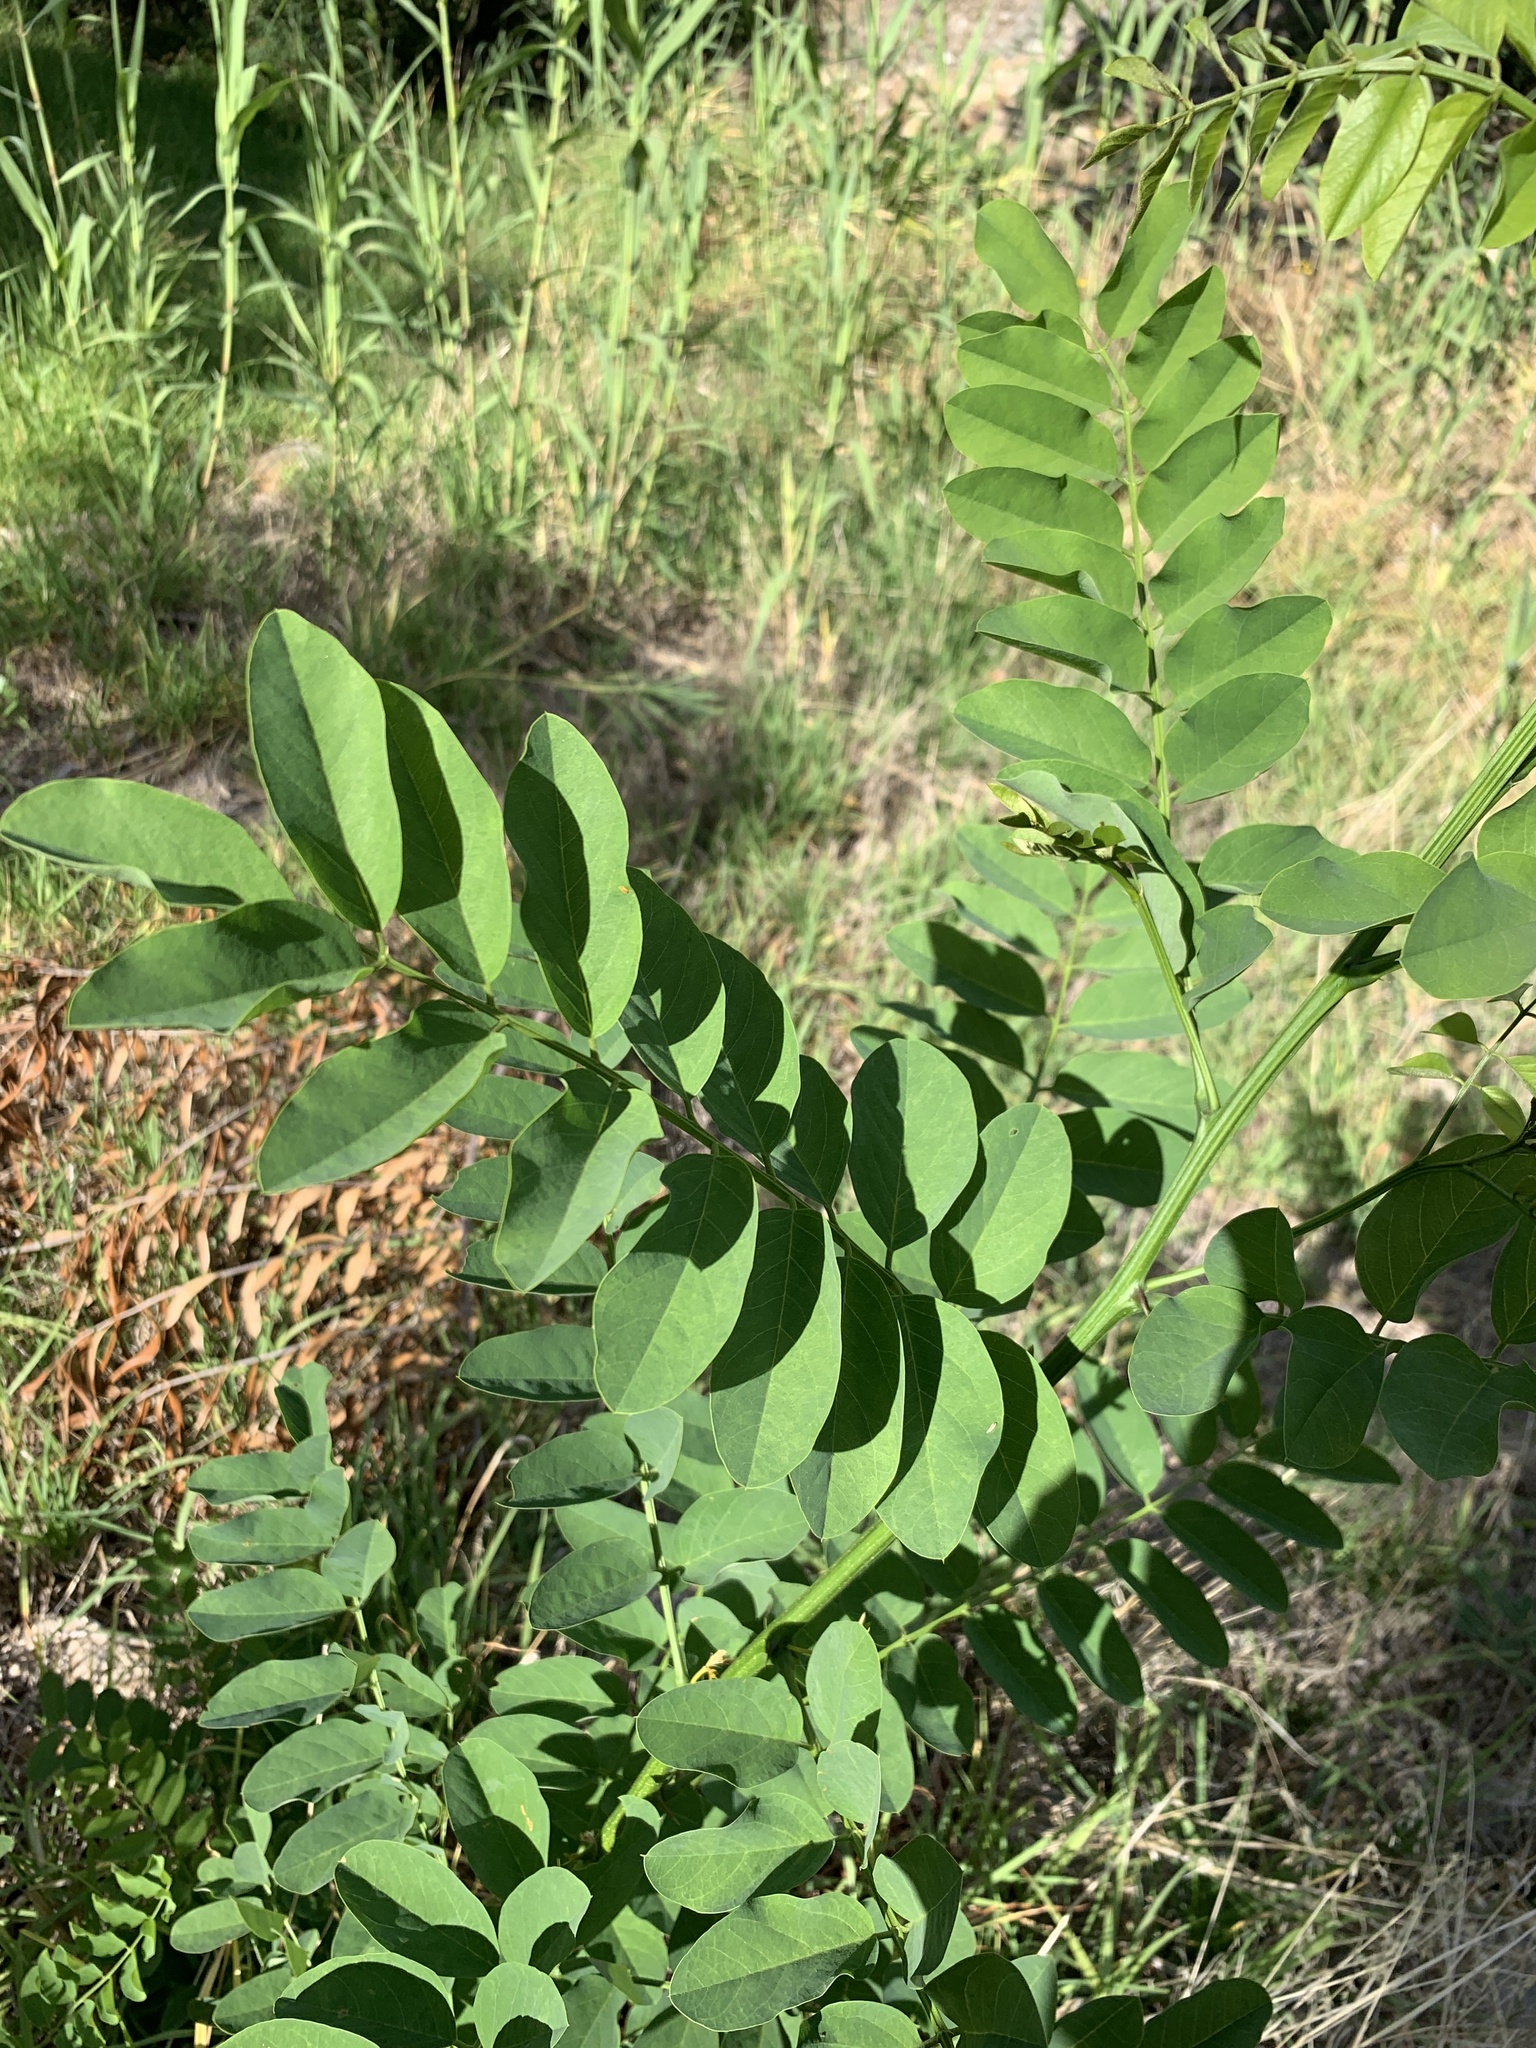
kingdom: Plantae
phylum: Tracheophyta
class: Magnoliopsida
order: Fabales
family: Fabaceae
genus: Robinia
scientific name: Robinia pseudoacacia
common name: Black locust
